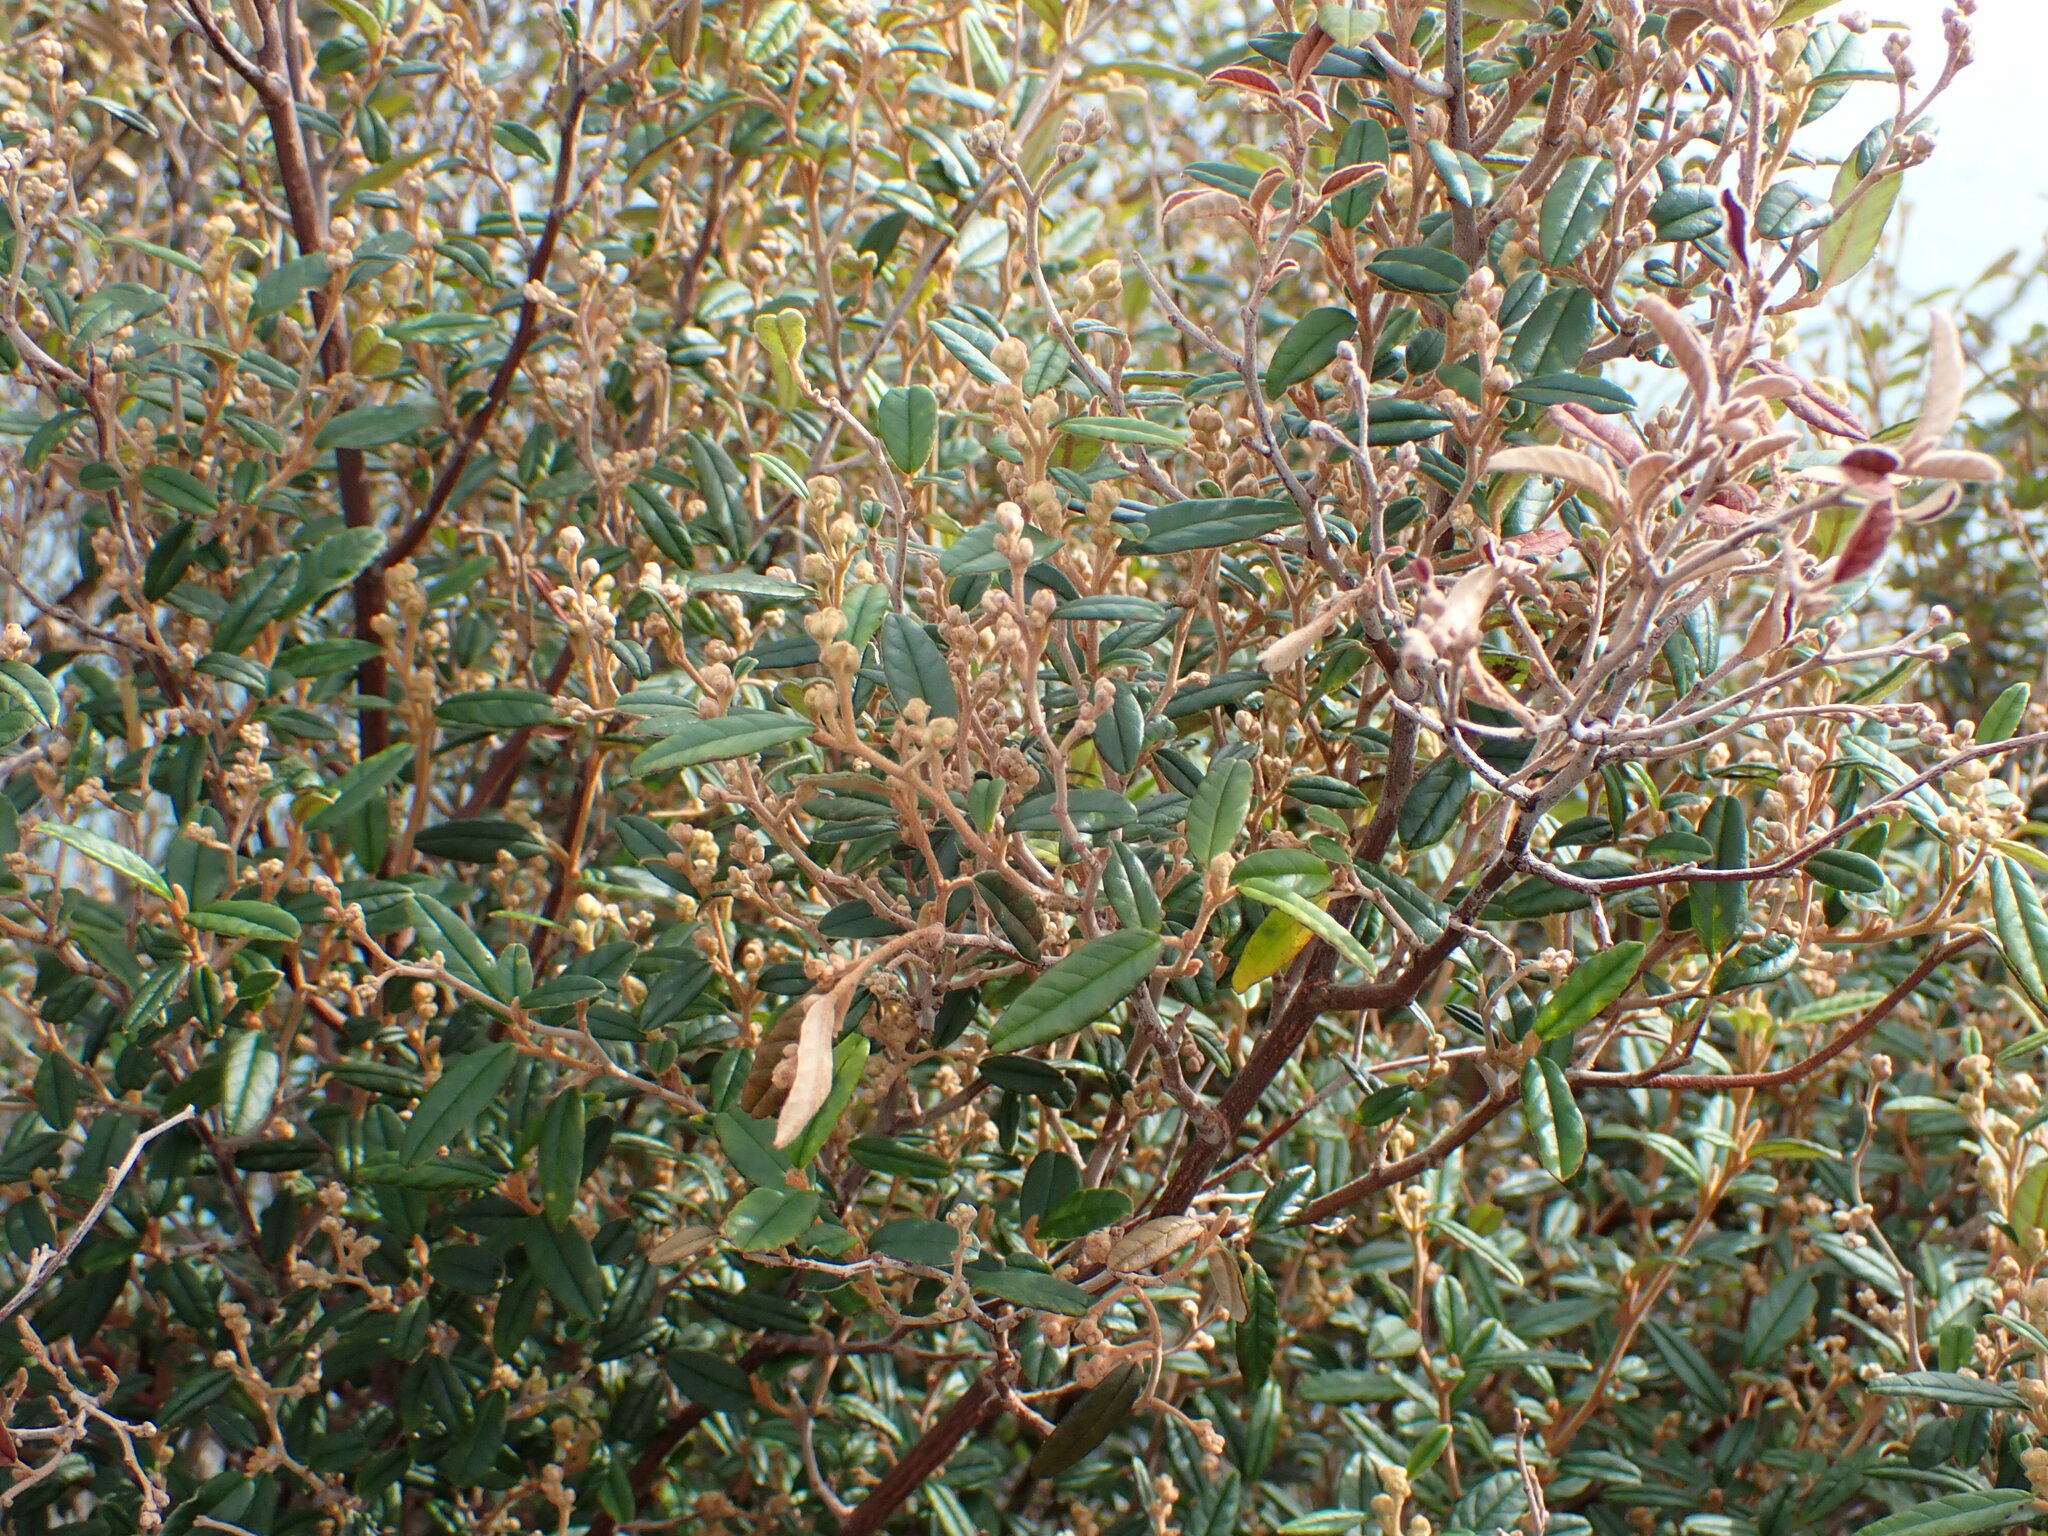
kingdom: Plantae
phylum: Tracheophyta
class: Magnoliopsida
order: Rosales
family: Rhamnaceae
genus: Pomaderris
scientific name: Pomaderris rugosa
